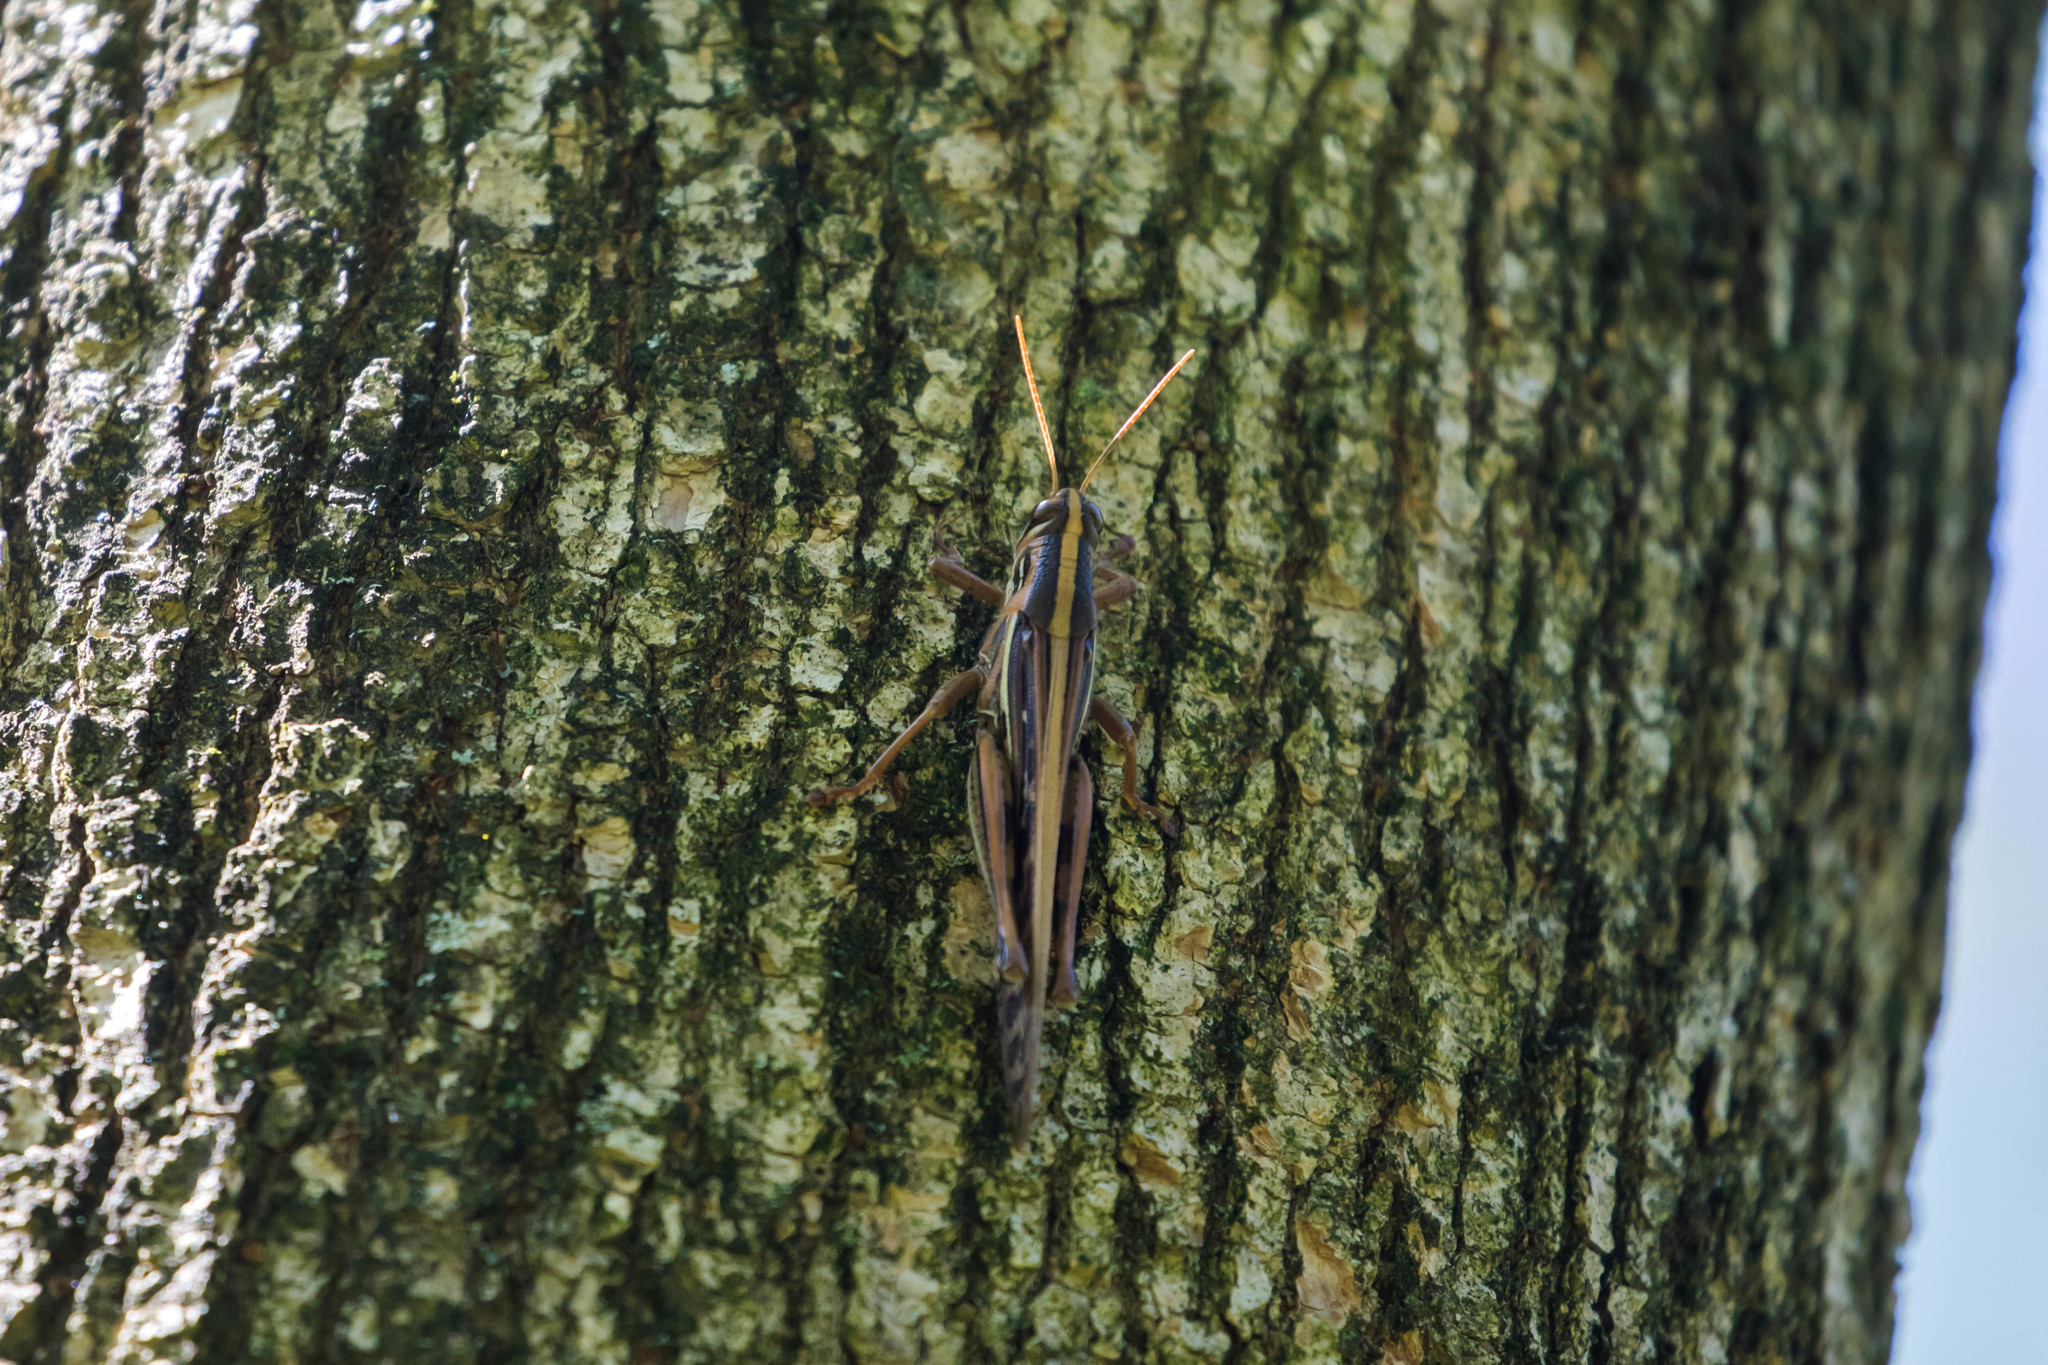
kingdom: Animalia
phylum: Arthropoda
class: Insecta
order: Orthoptera
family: Acrididae
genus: Schistocerca
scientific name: Schistocerca americana
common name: American bird locust
